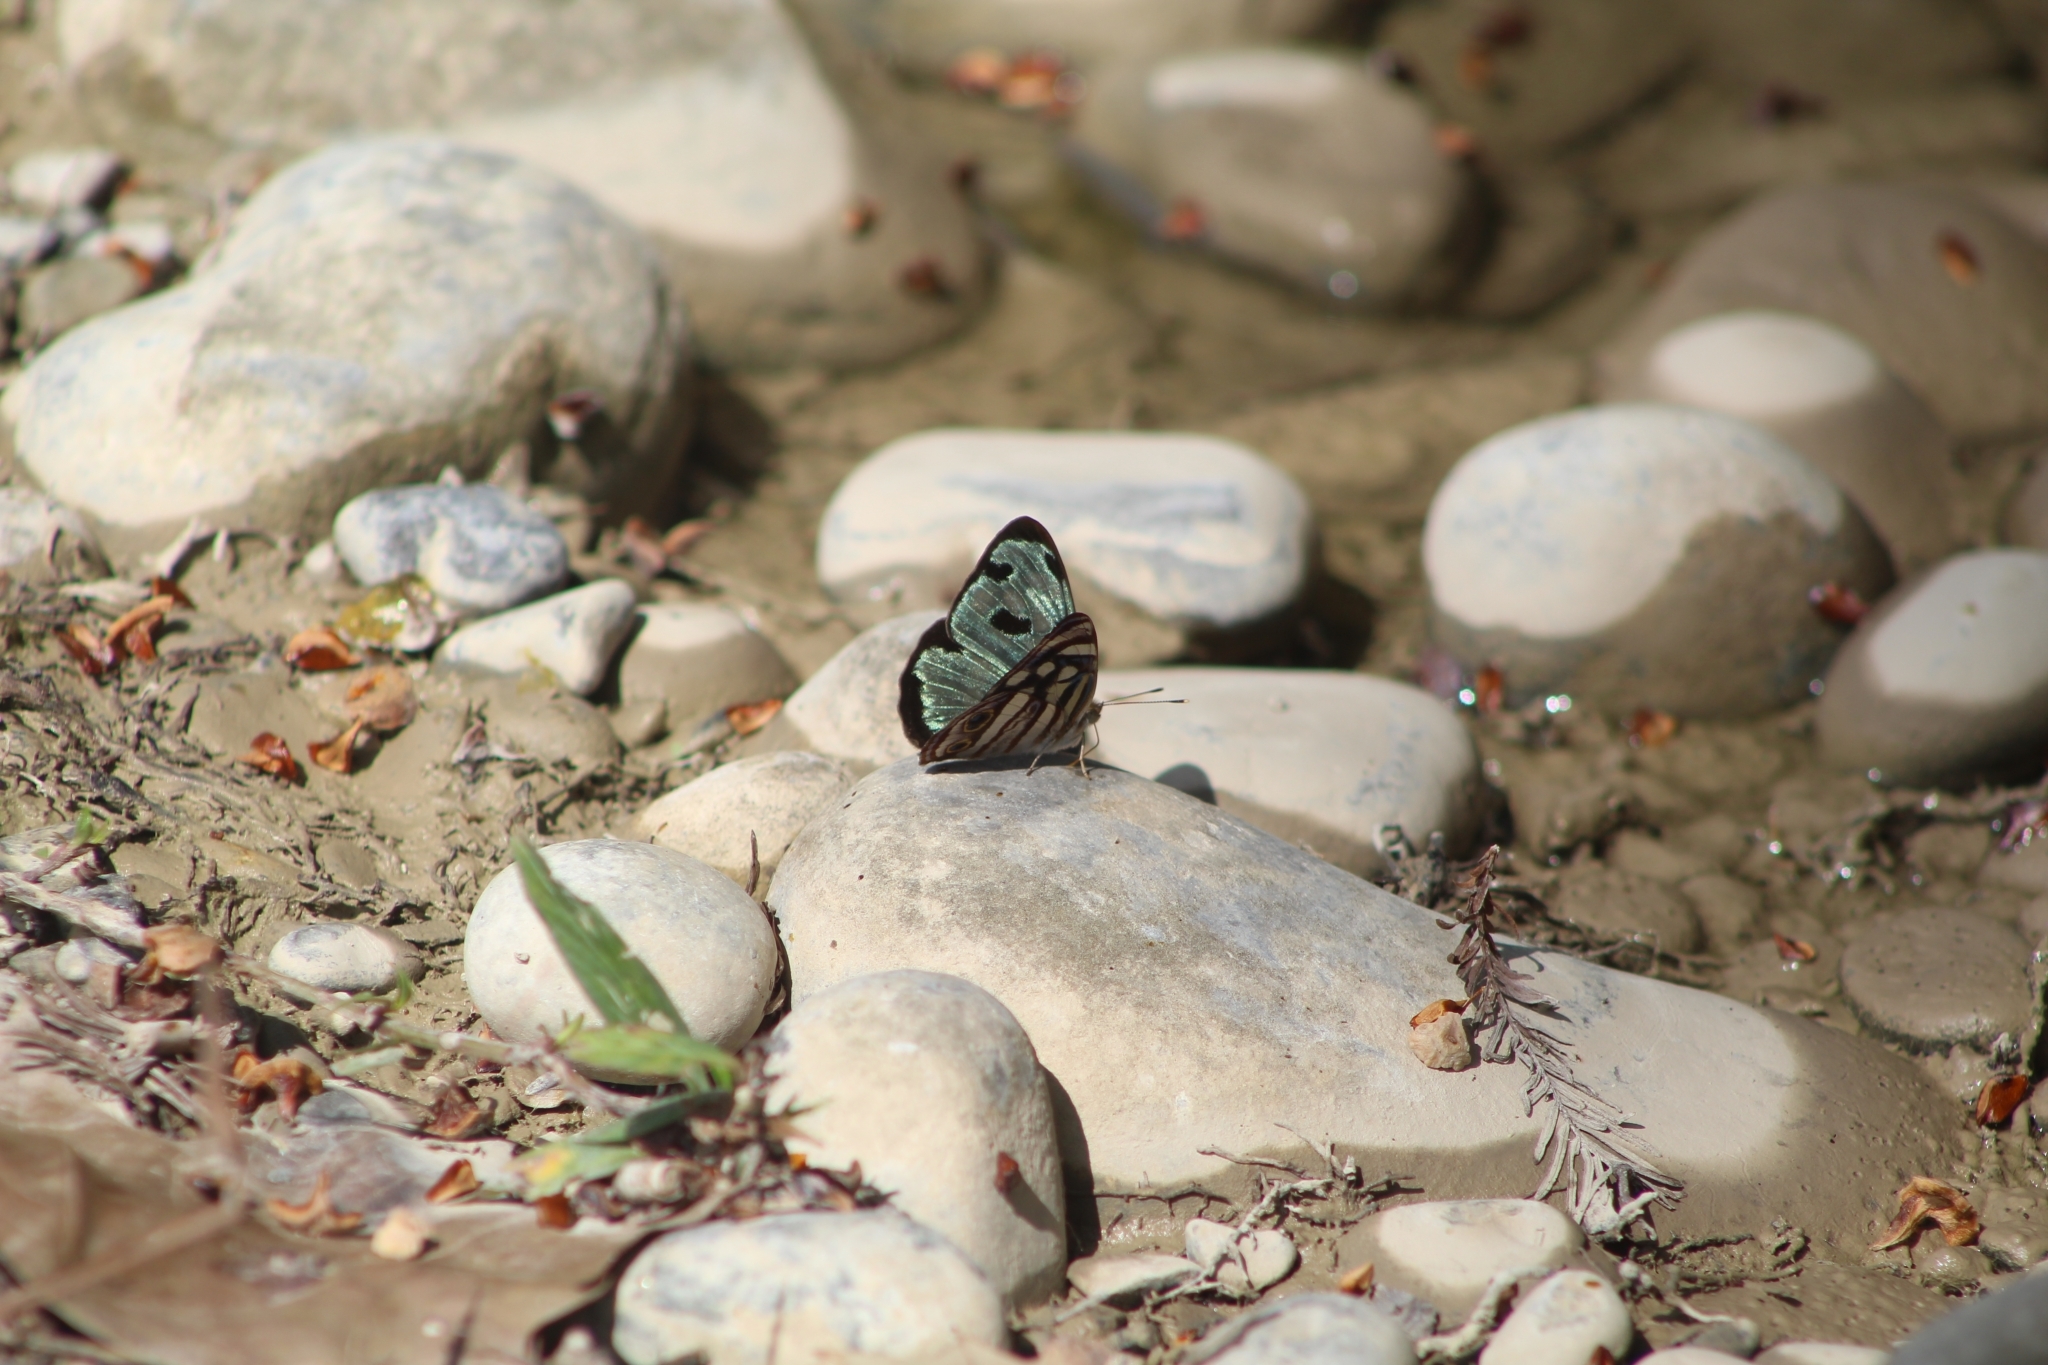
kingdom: Animalia
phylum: Arthropoda
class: Insecta
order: Lepidoptera
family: Nymphalidae
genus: Dynamine
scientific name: Dynamine mylitta
